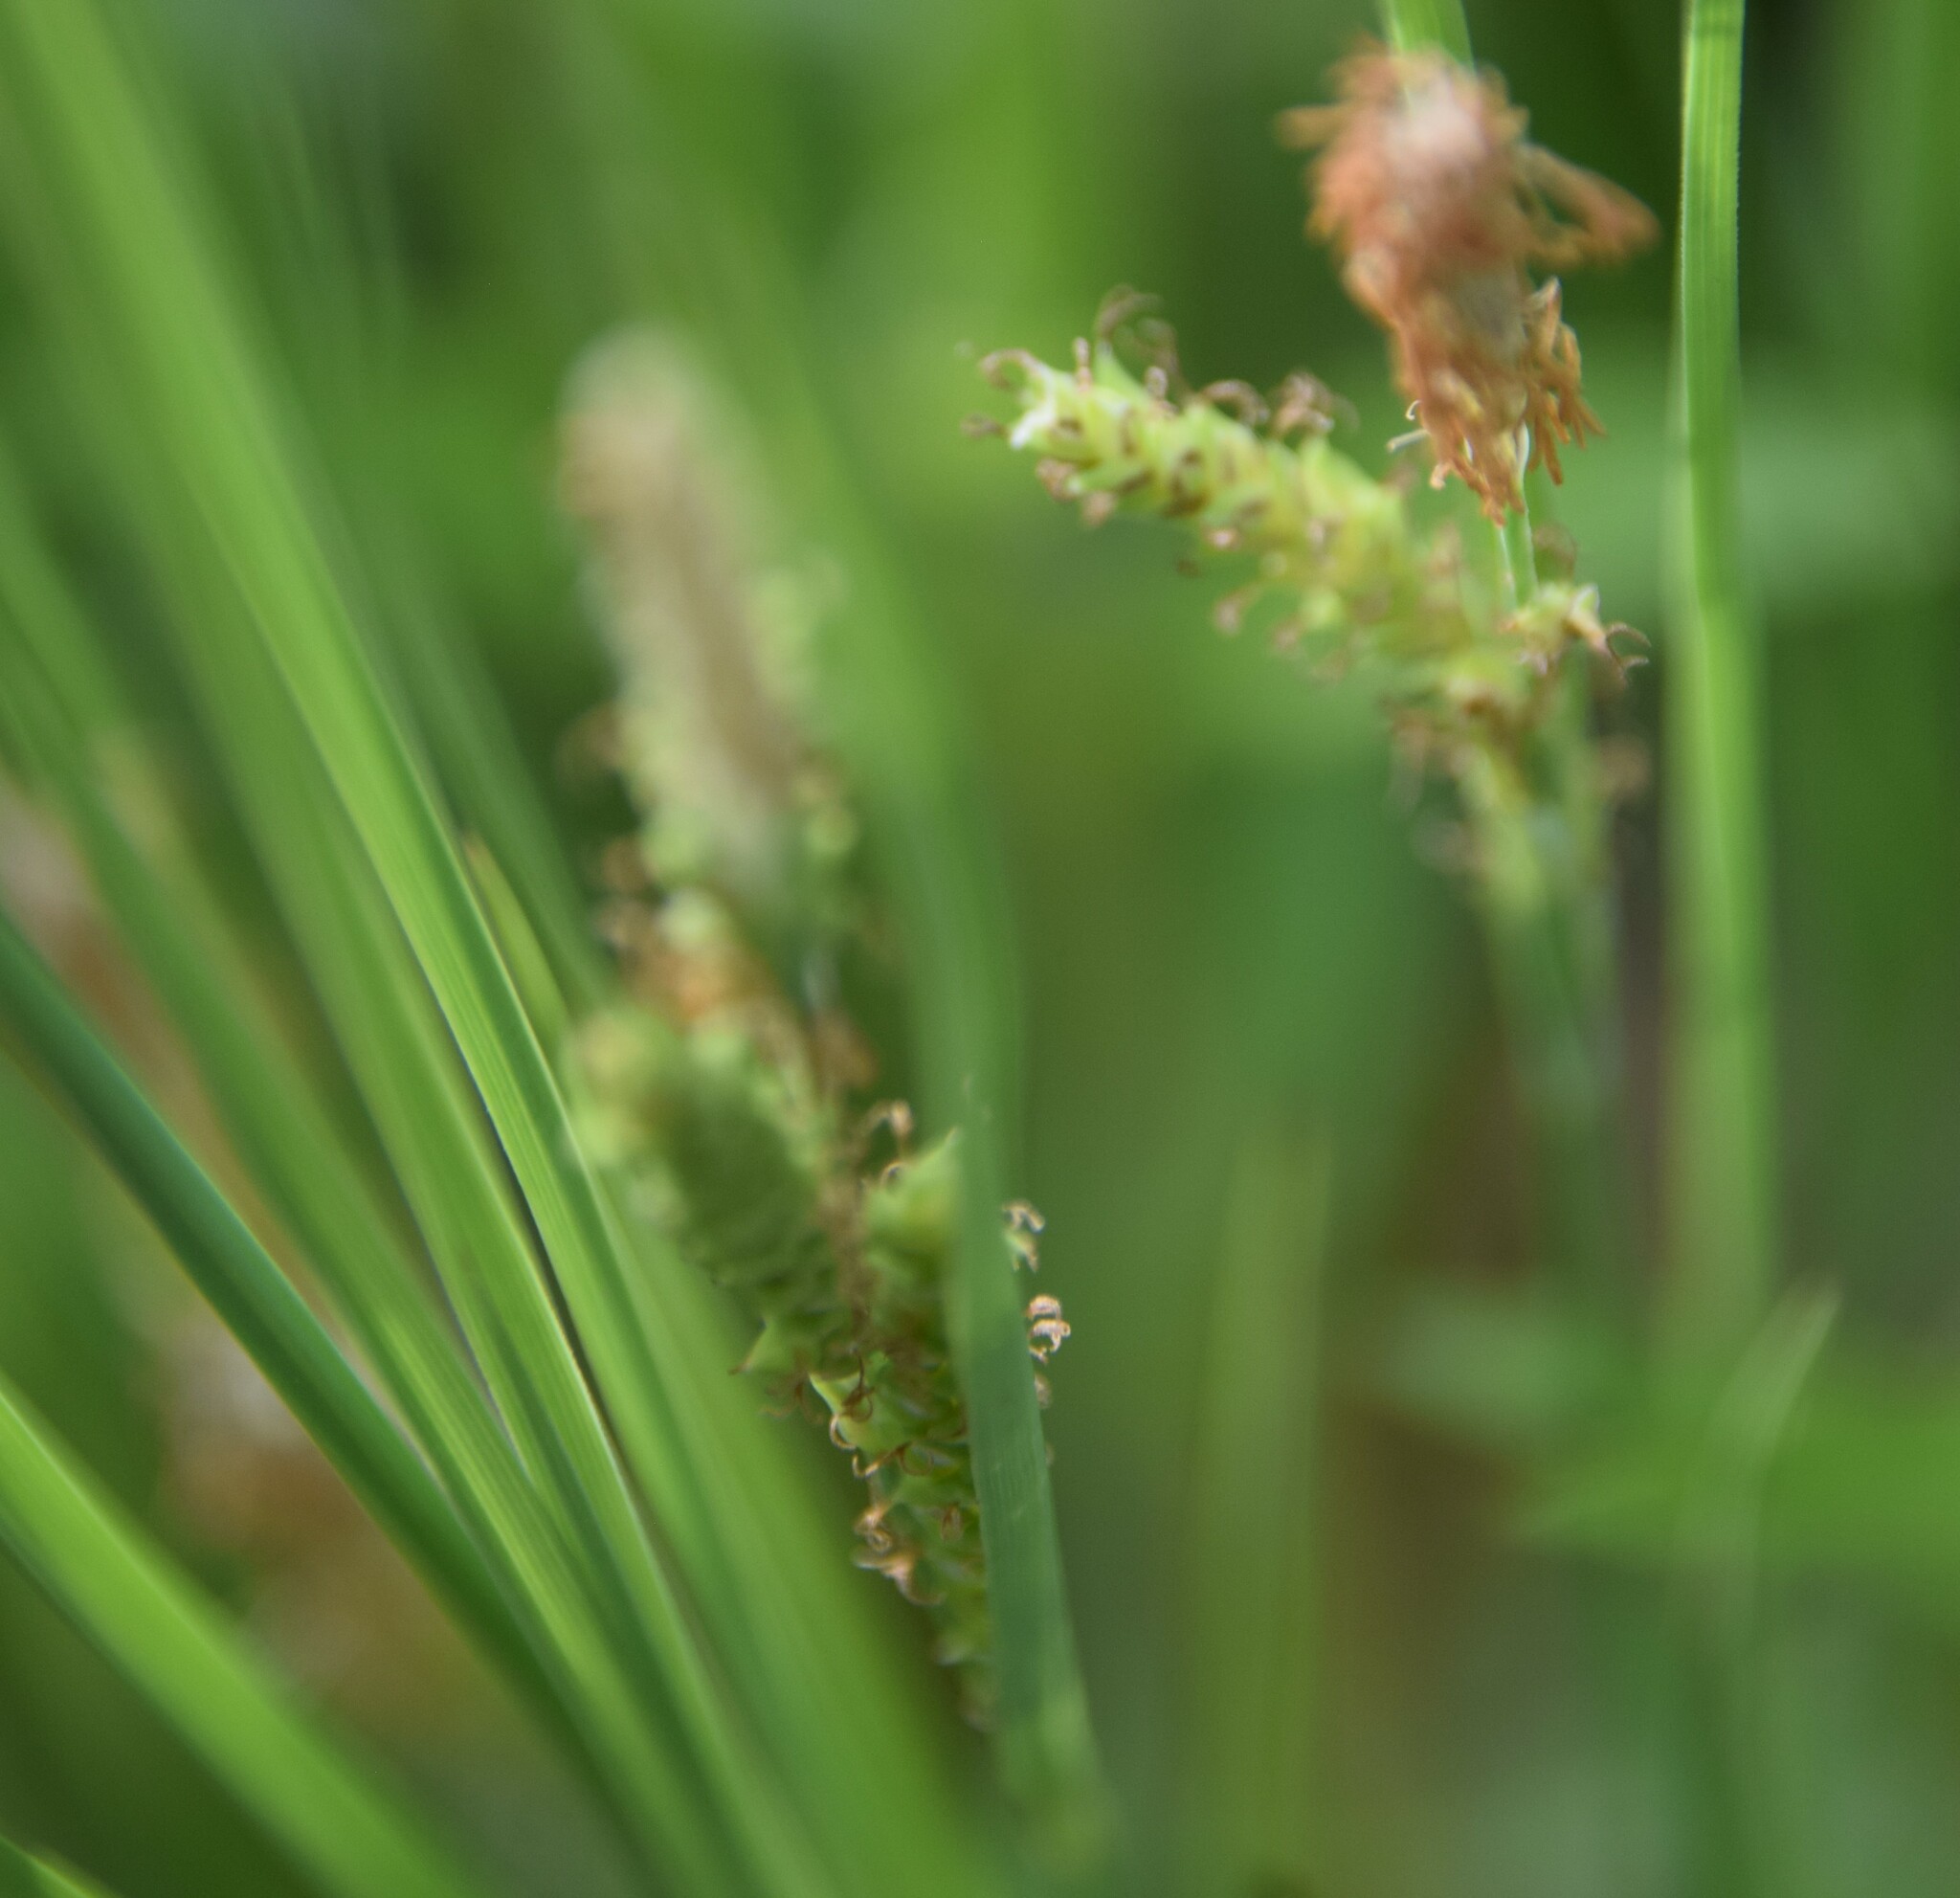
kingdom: Plantae
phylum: Tracheophyta
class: Liliopsida
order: Poales
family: Cyperaceae
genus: Carex
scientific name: Carex lenticularis
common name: Lakeshore sedge
